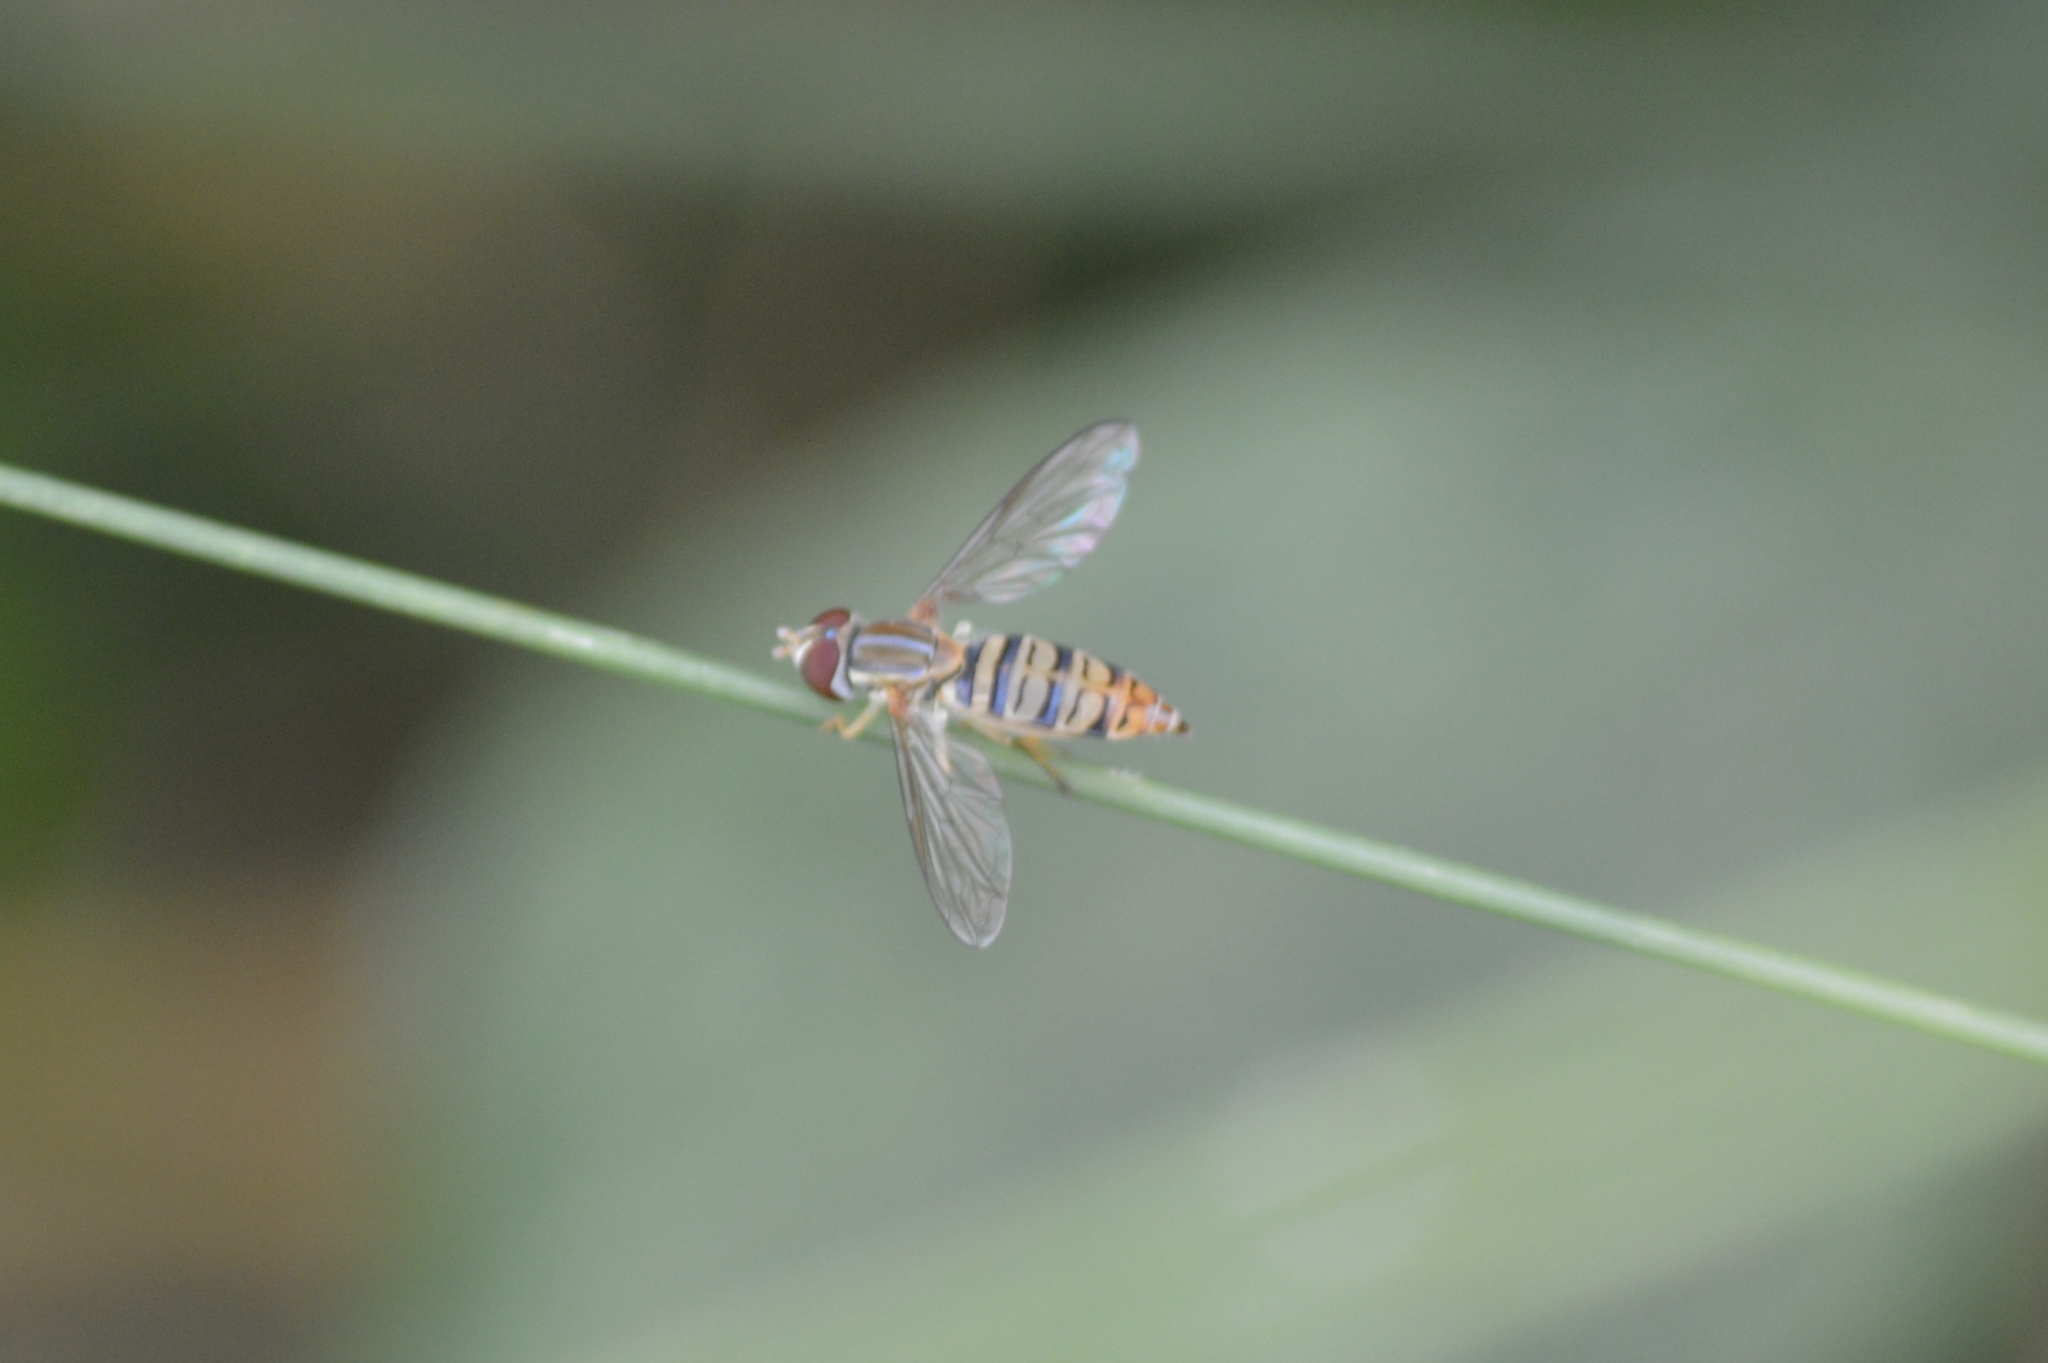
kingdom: Animalia
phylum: Arthropoda
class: Insecta
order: Diptera
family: Syrphidae
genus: Toxomerus
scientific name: Toxomerus politus
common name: Maize calligrapher
